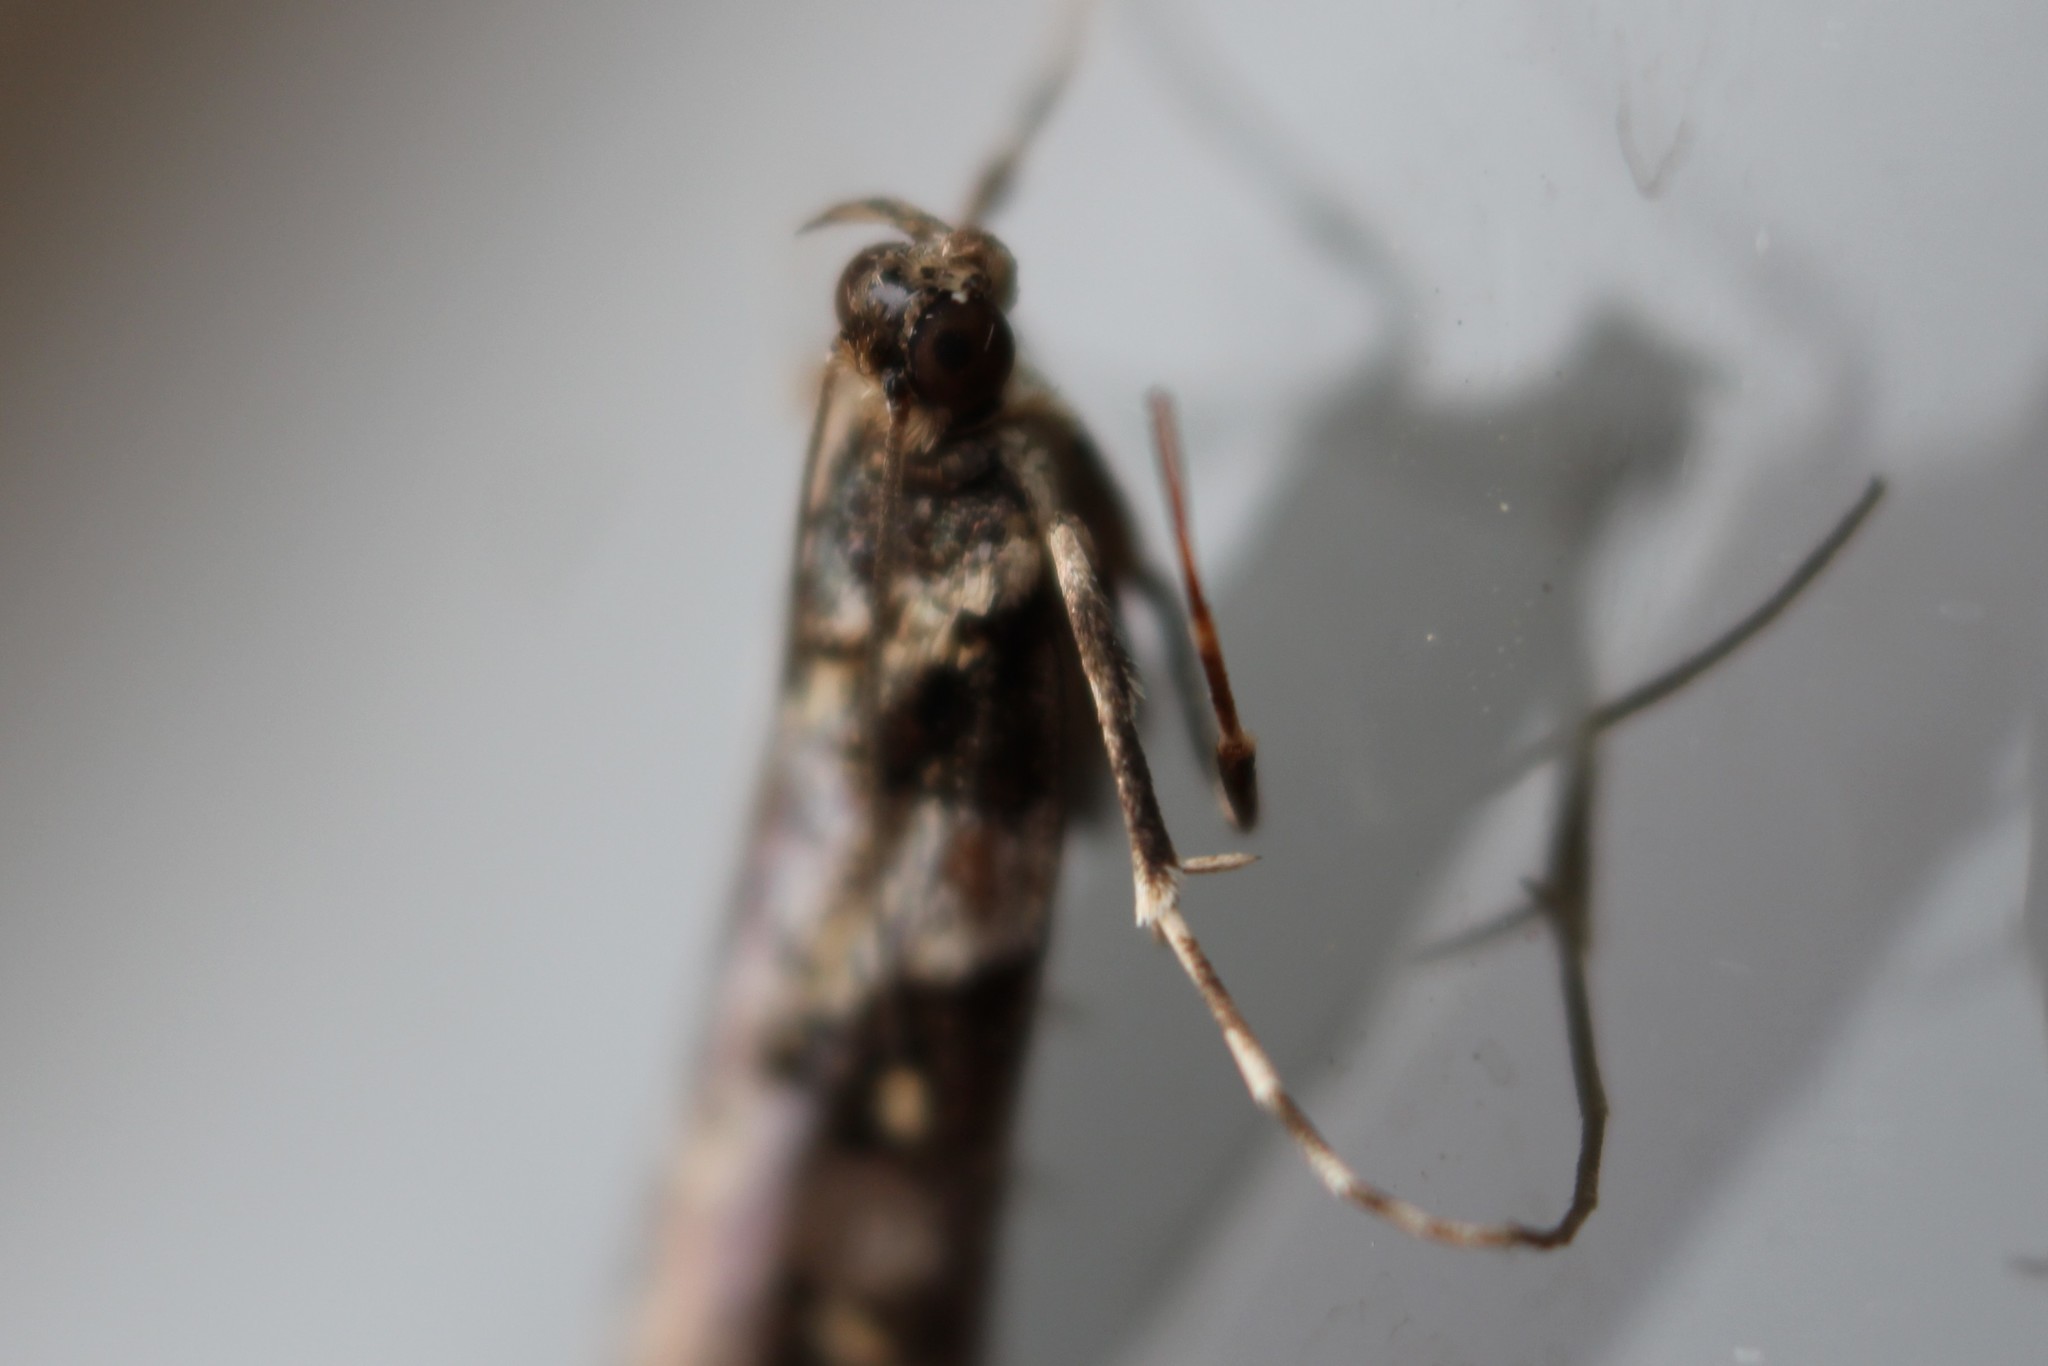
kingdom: Animalia
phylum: Arthropoda
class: Insecta
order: Lepidoptera
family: Crambidae
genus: Eudonia
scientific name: Eudonia diphtheralis
